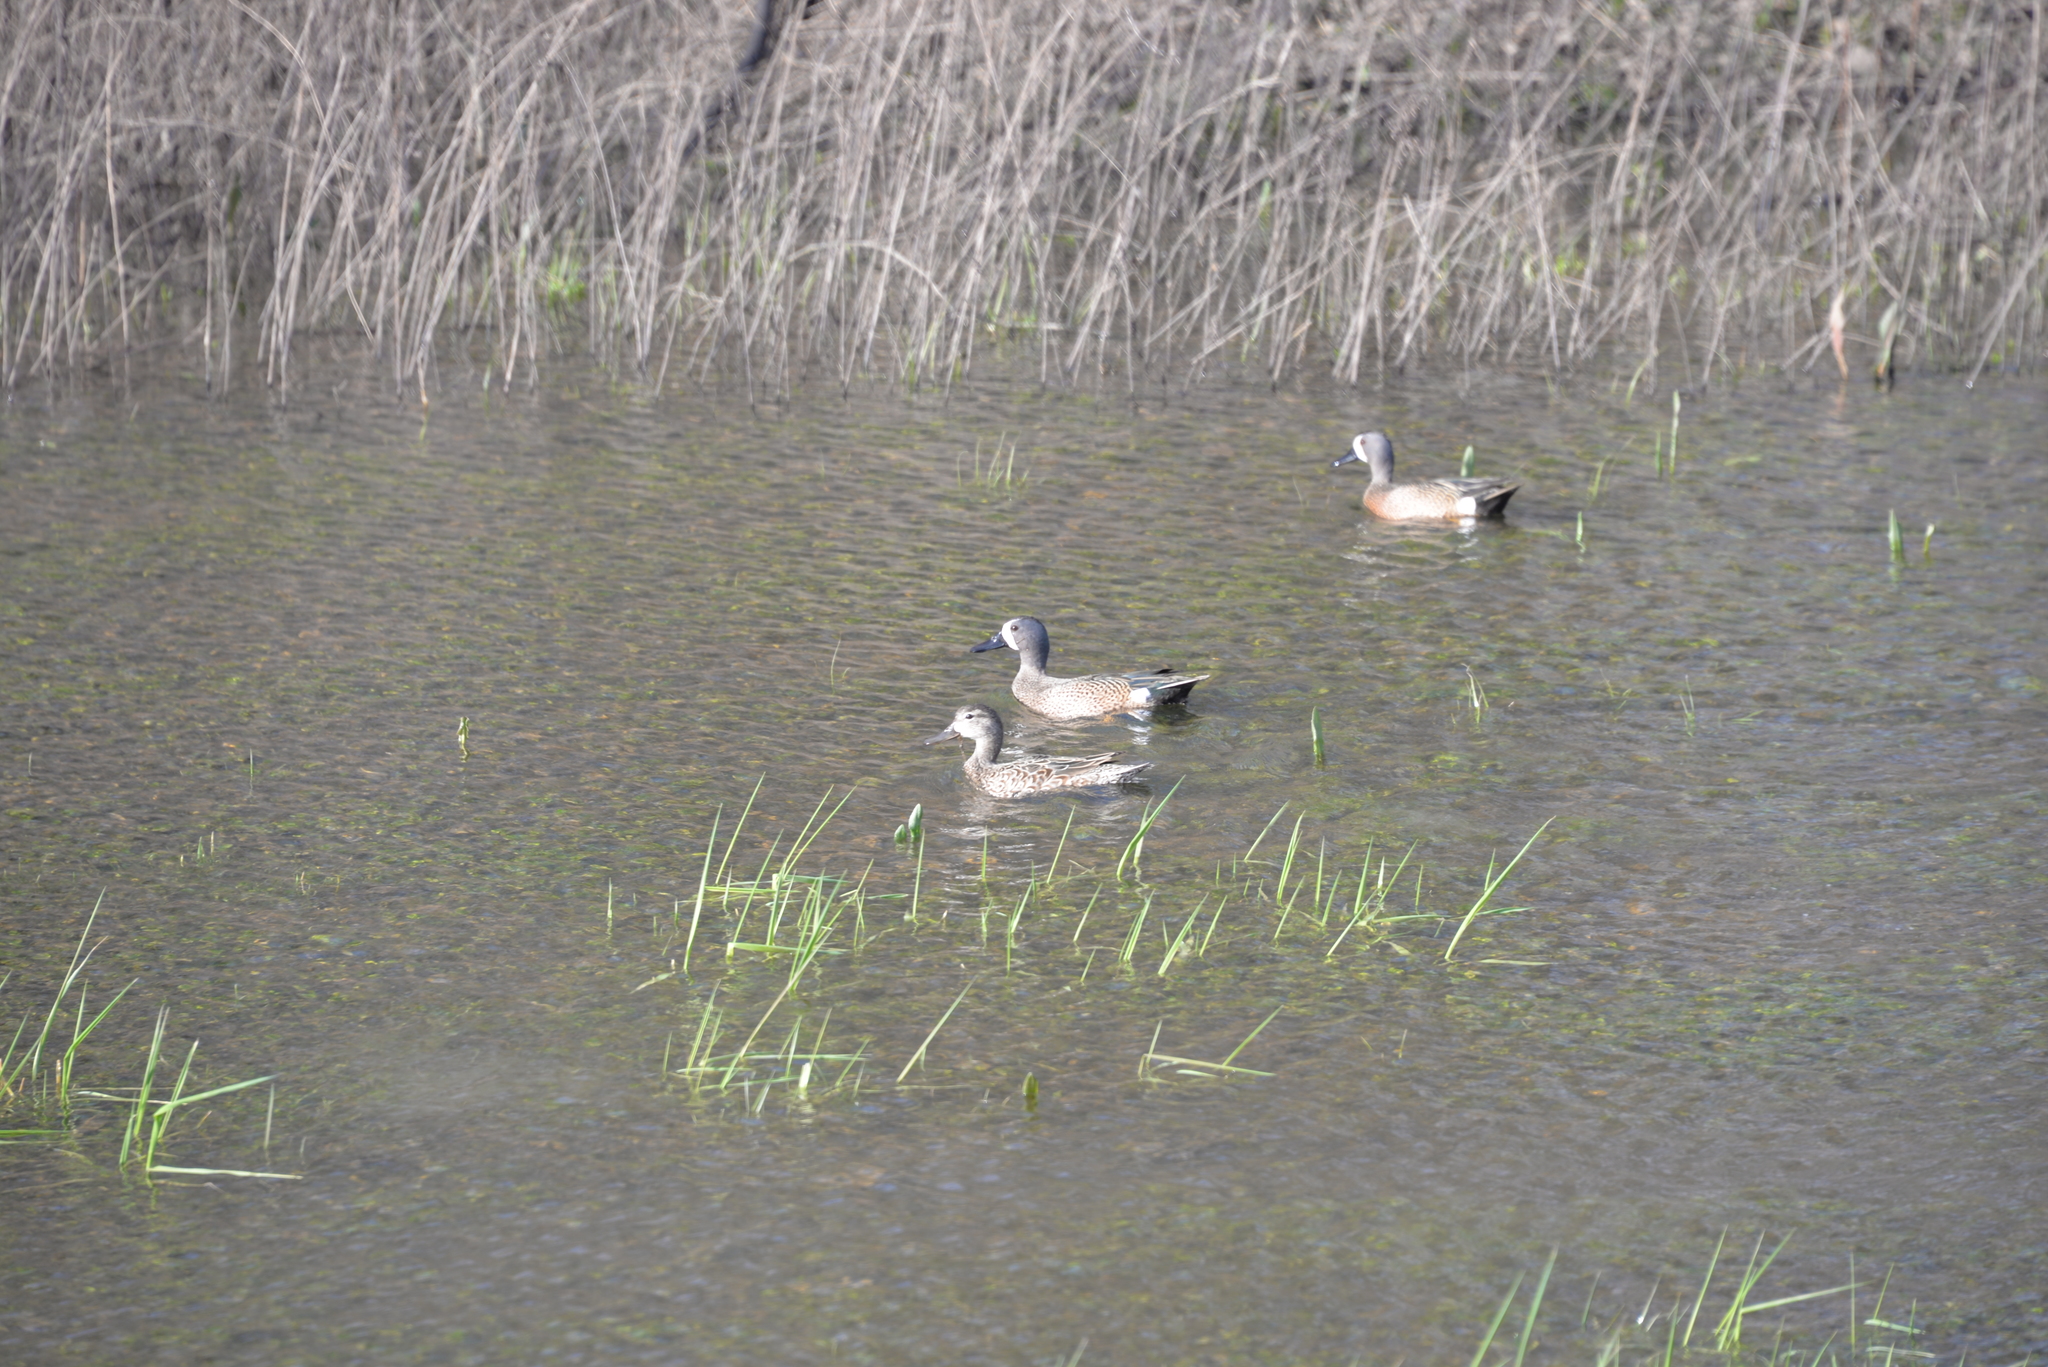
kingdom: Animalia
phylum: Chordata
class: Aves
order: Anseriformes
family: Anatidae
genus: Spatula
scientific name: Spatula discors
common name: Blue-winged teal
